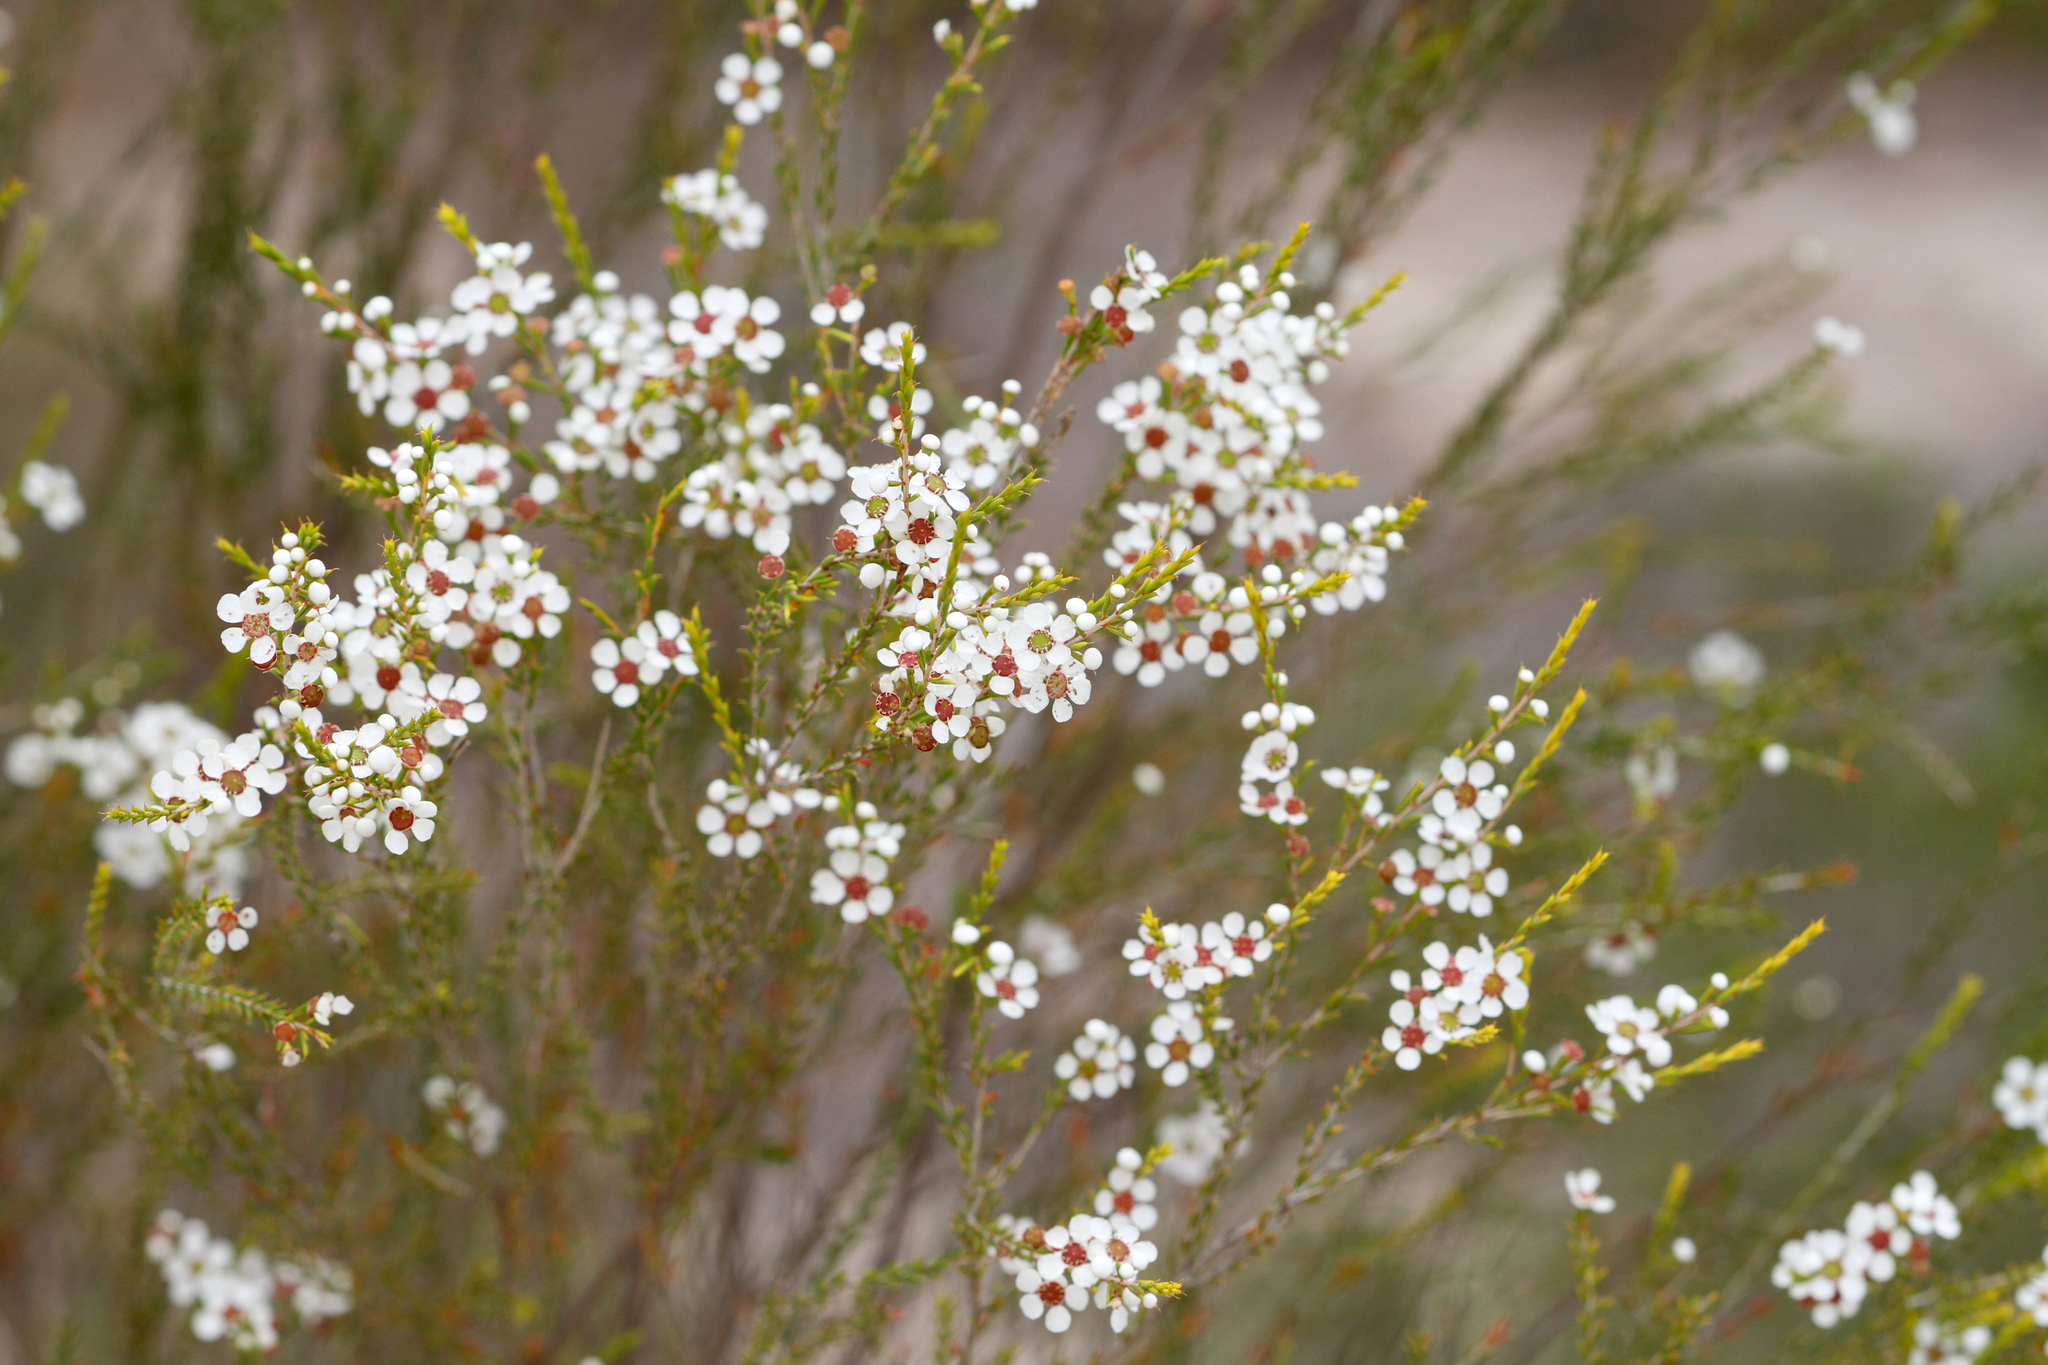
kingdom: Plantae
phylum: Tracheophyta
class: Magnoliopsida
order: Myrtales
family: Myrtaceae
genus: Hysterobaeckea
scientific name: Hysterobaeckea behrii
